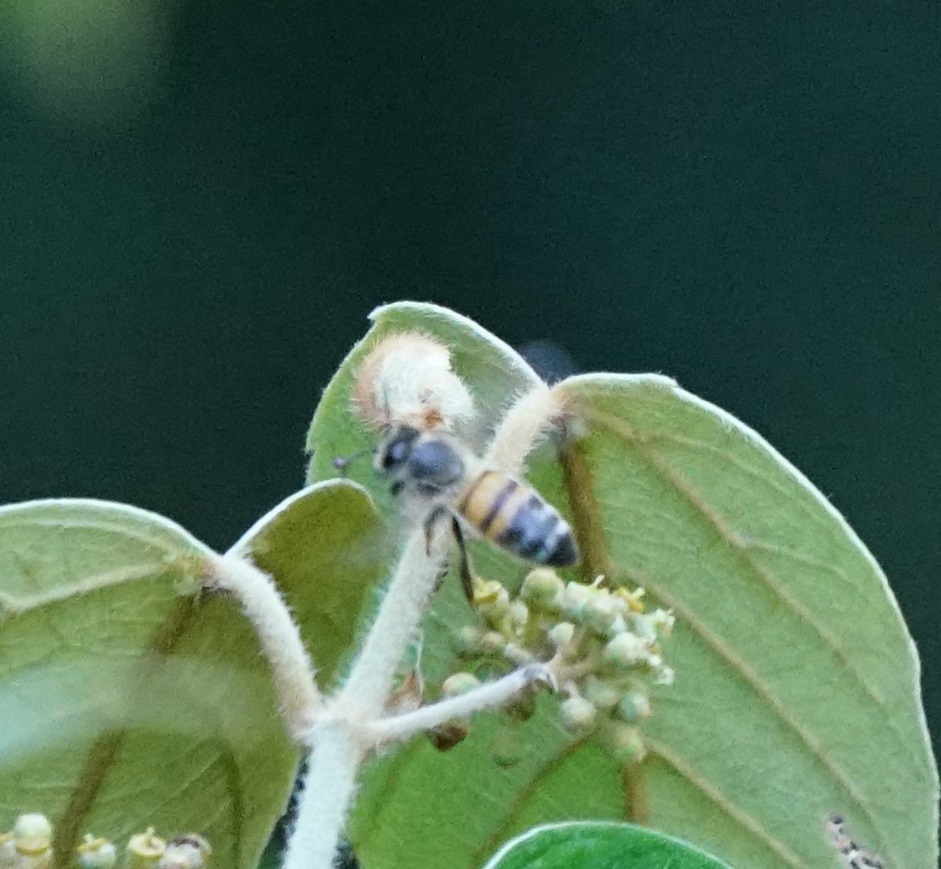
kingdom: Animalia
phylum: Arthropoda
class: Insecta
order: Hymenoptera
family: Apidae
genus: Apis
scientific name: Apis mellifera
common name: Honey bee
